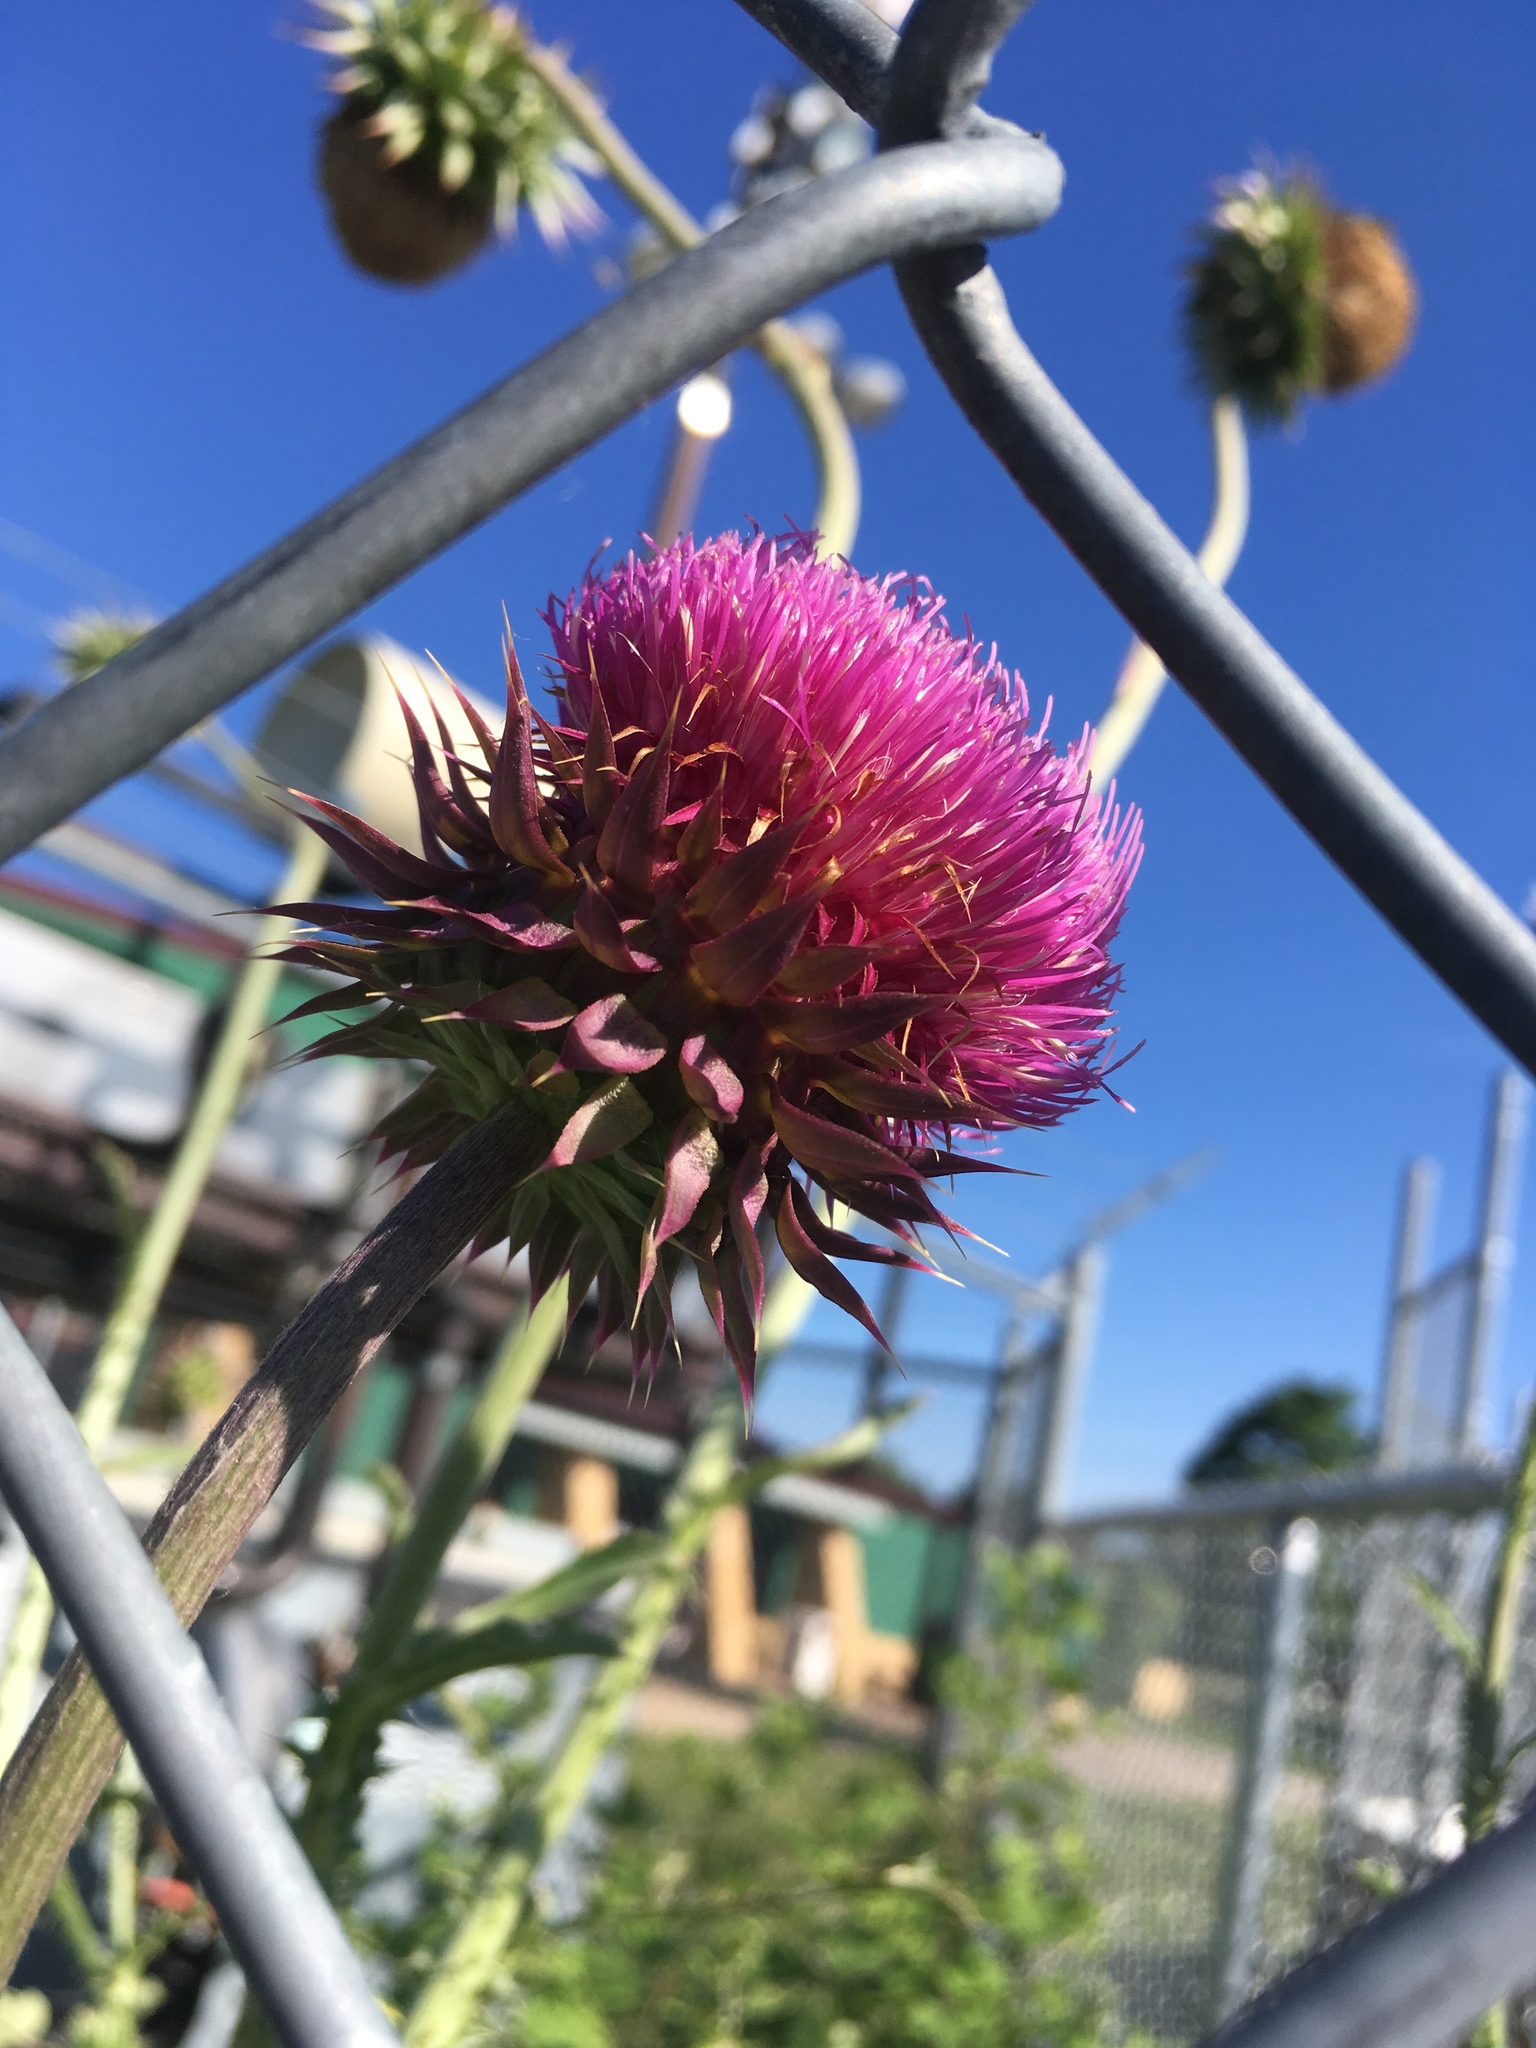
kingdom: Plantae
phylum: Tracheophyta
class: Magnoliopsida
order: Asterales
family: Asteraceae
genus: Carduus
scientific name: Carduus nutans
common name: Musk thistle
